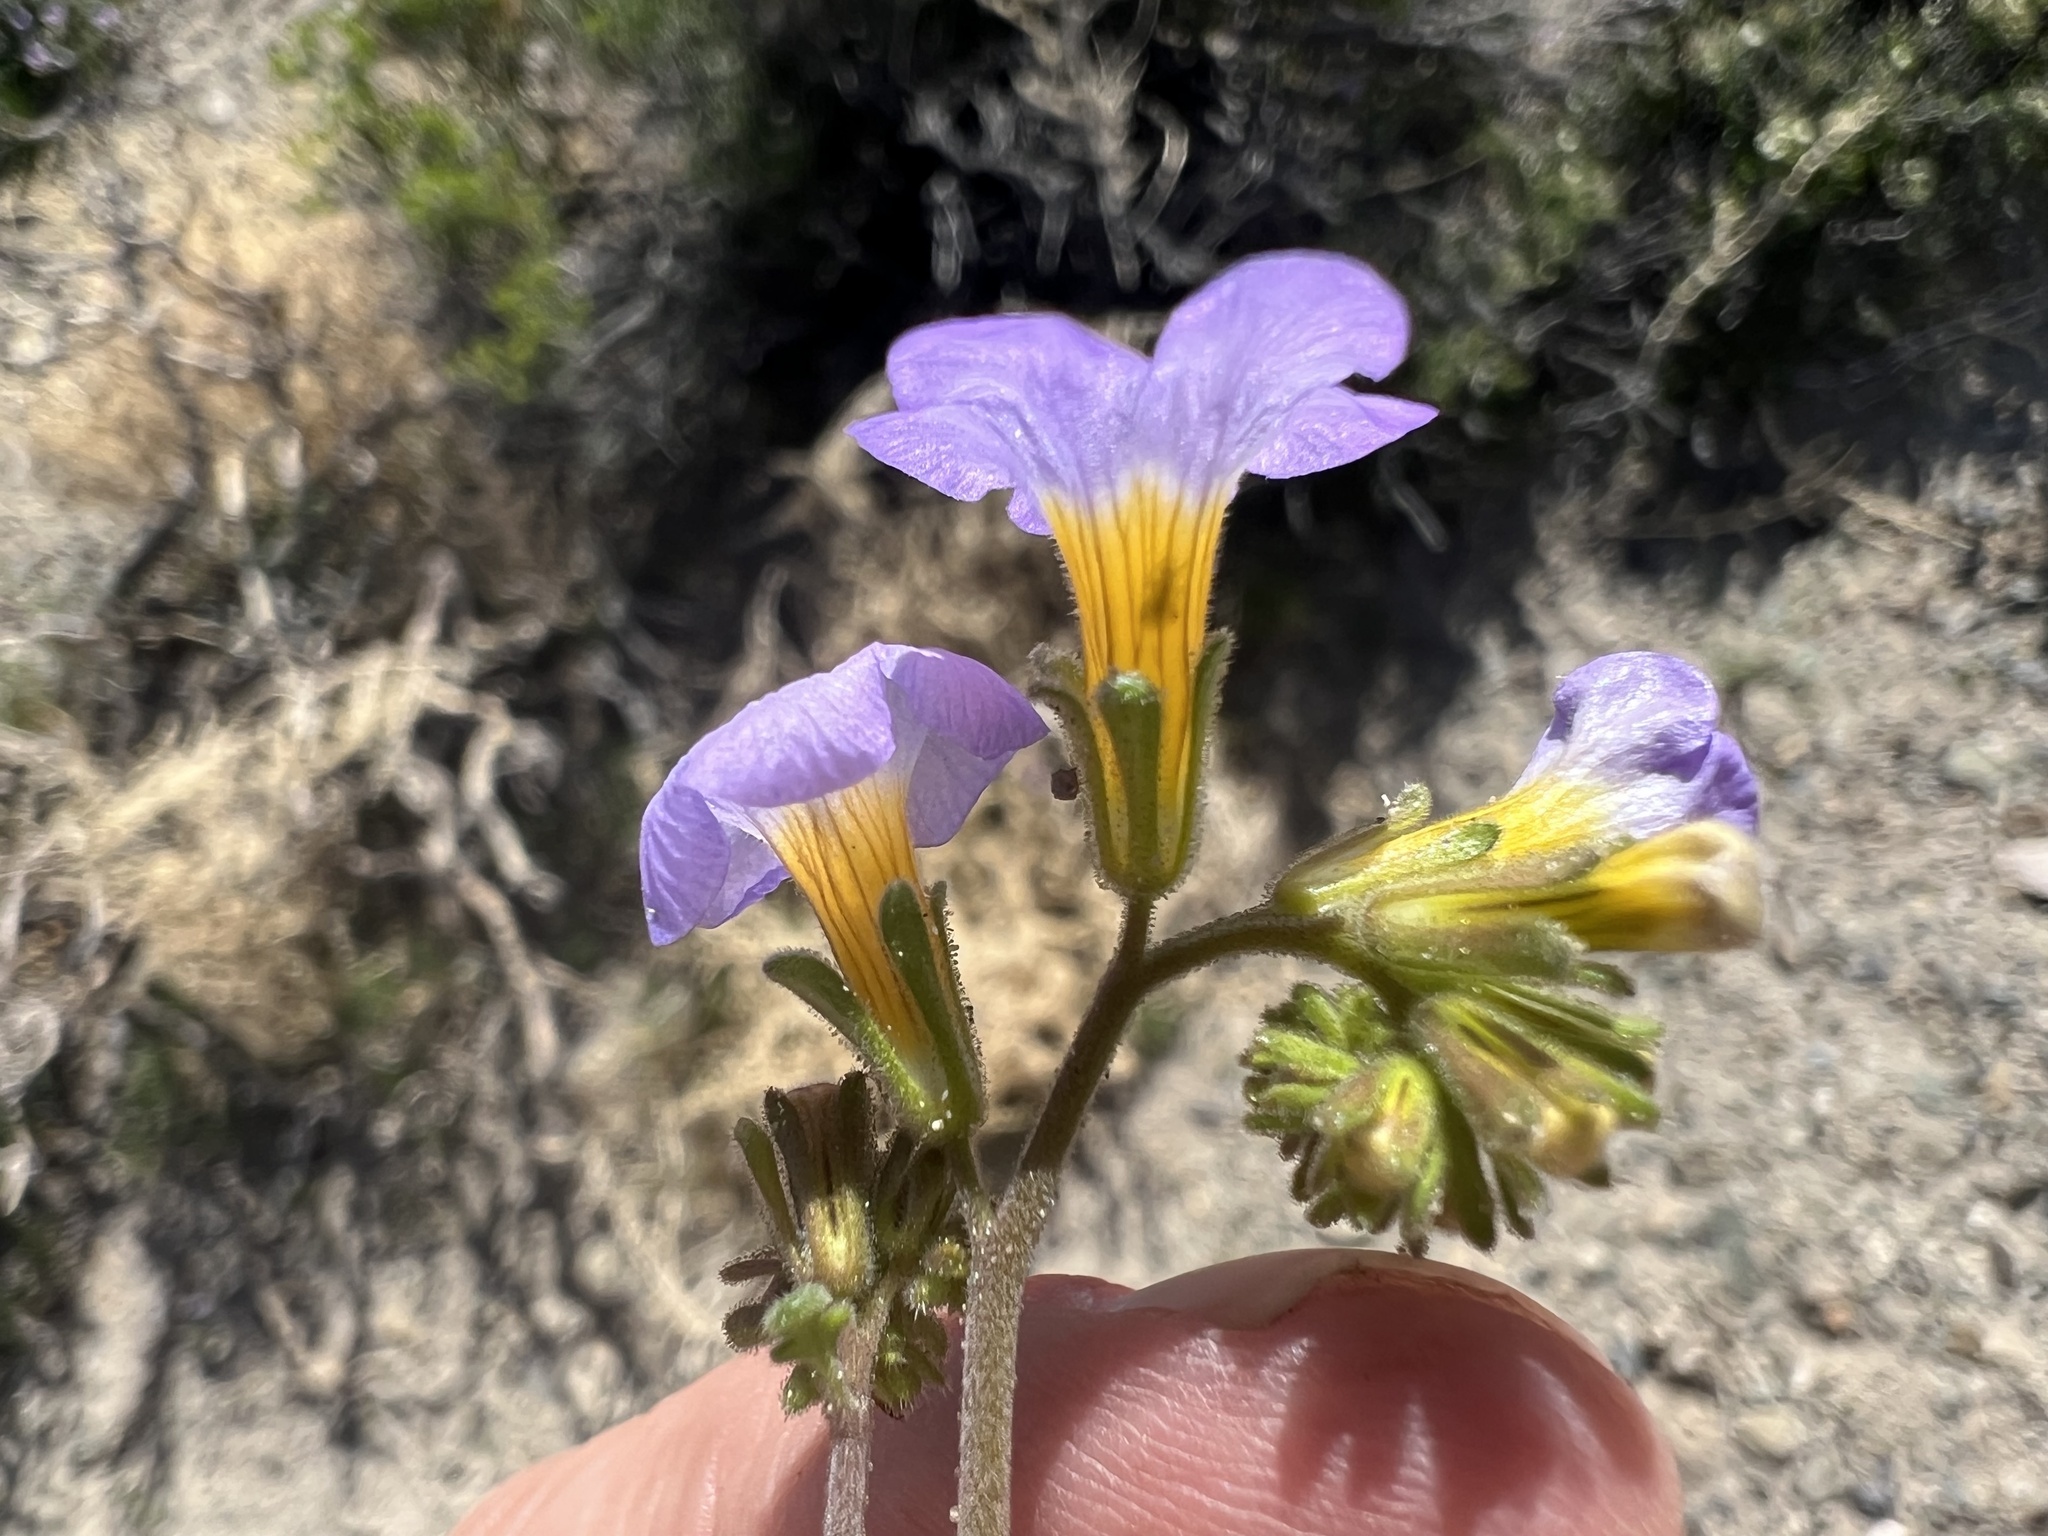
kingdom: Plantae
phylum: Tracheophyta
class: Magnoliopsida
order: Boraginales
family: Hydrophyllaceae
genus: Phacelia
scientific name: Phacelia fremontii
